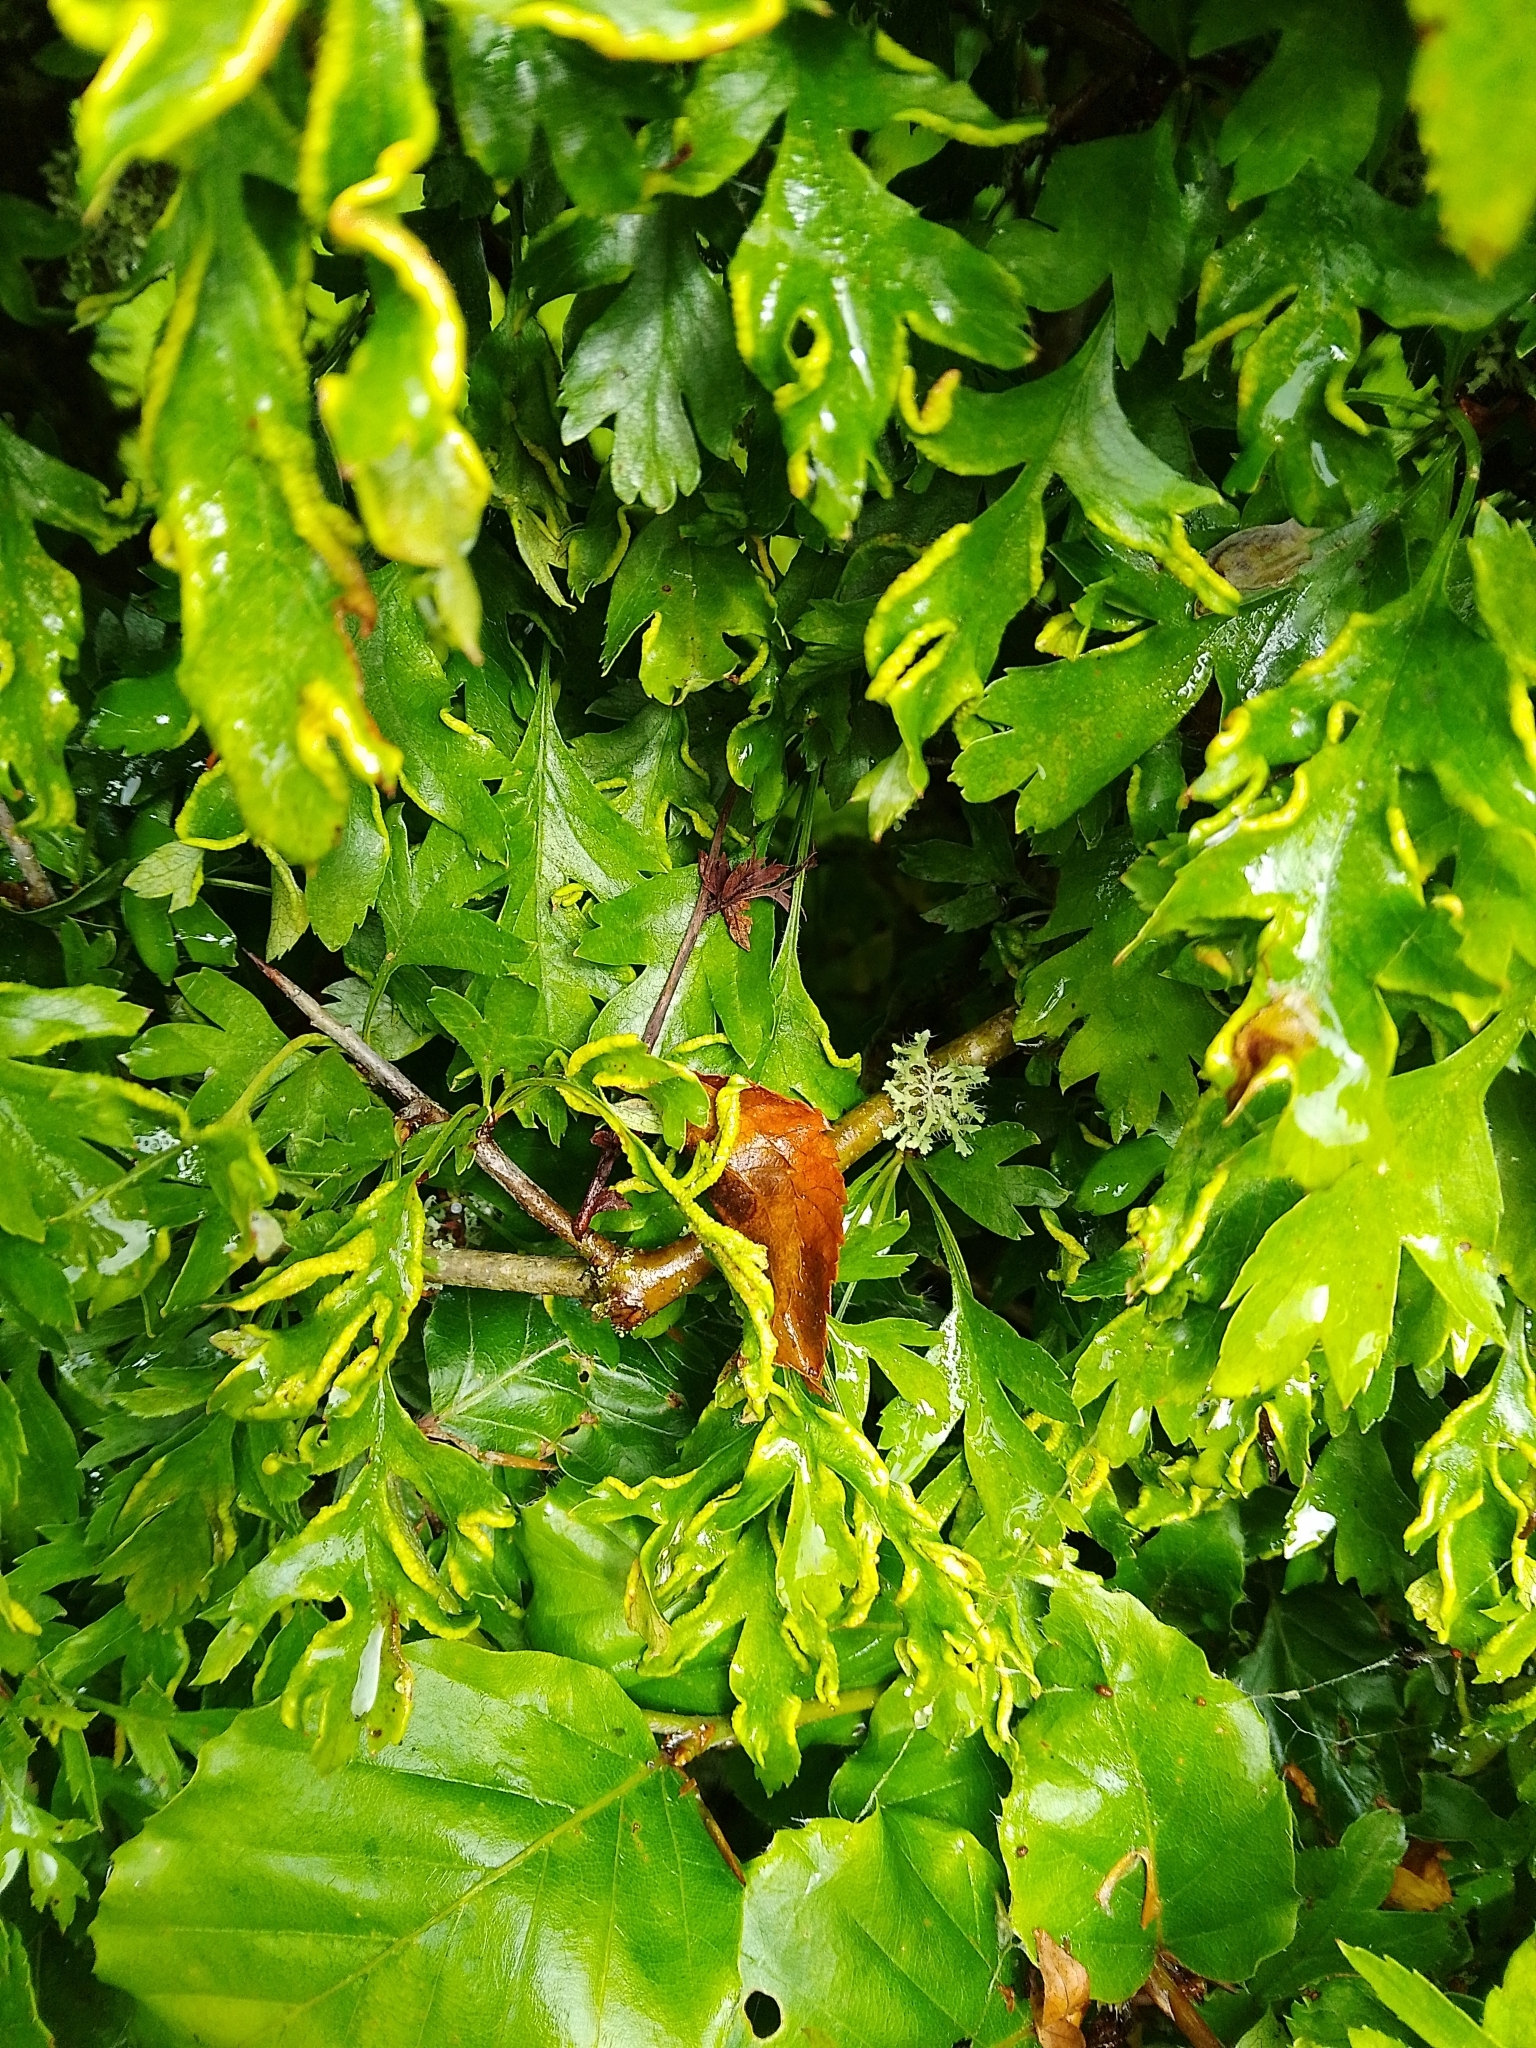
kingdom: Animalia
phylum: Arthropoda
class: Arachnida
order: Trombidiformes
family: Eriophyidae
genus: Phyllocoptes
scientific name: Phyllocoptes goniothorax
